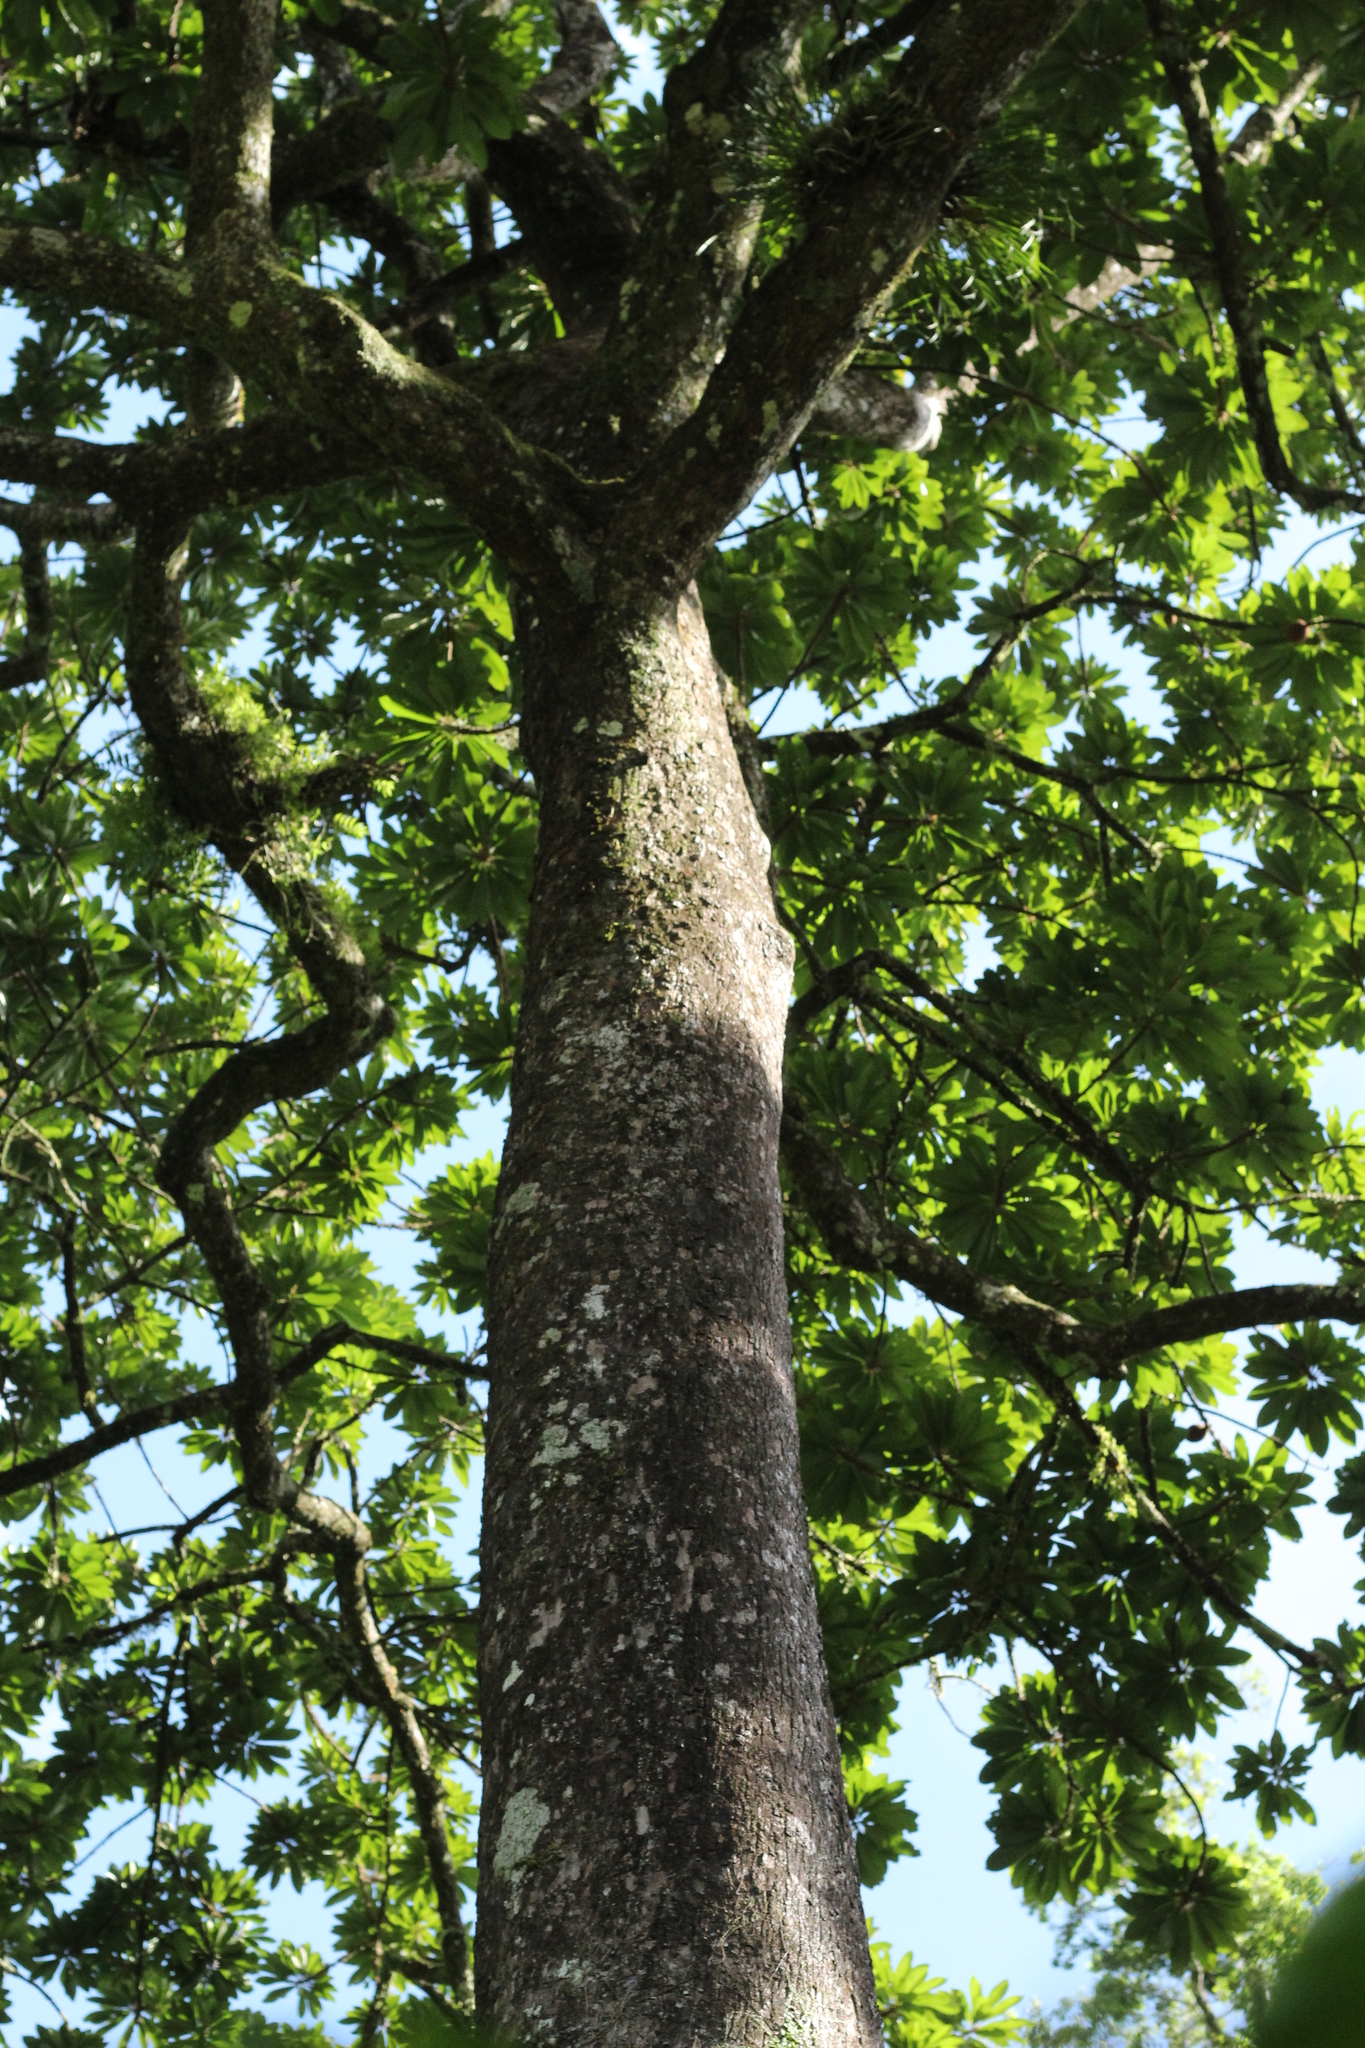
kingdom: Plantae
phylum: Tracheophyta
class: Magnoliopsida
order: Malvales
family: Malvaceae
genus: Ceiba
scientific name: Ceiba pentandra
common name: Kapok
